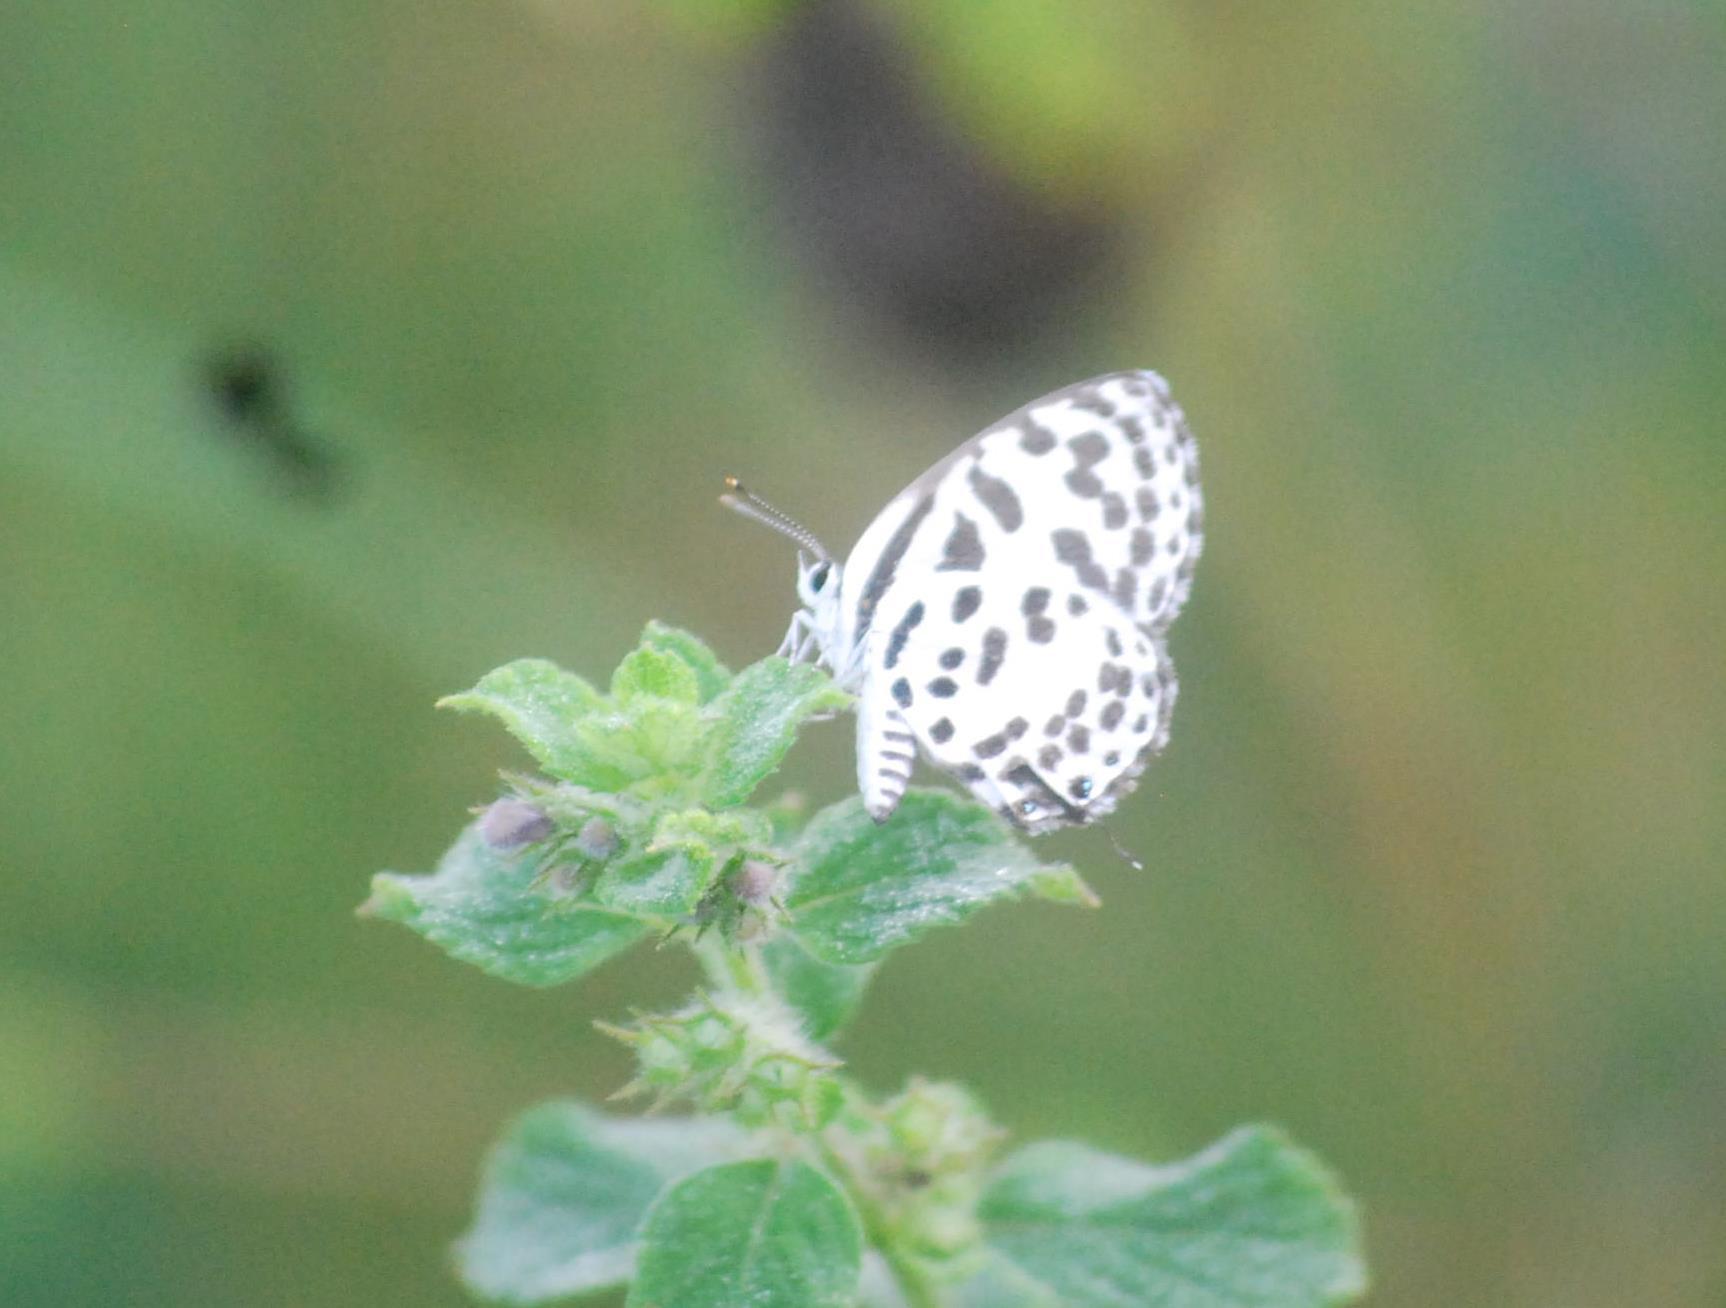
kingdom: Animalia
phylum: Arthropoda
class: Insecta
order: Lepidoptera
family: Lycaenidae
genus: Castalius
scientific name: Castalius rosimon
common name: Common pierrot
